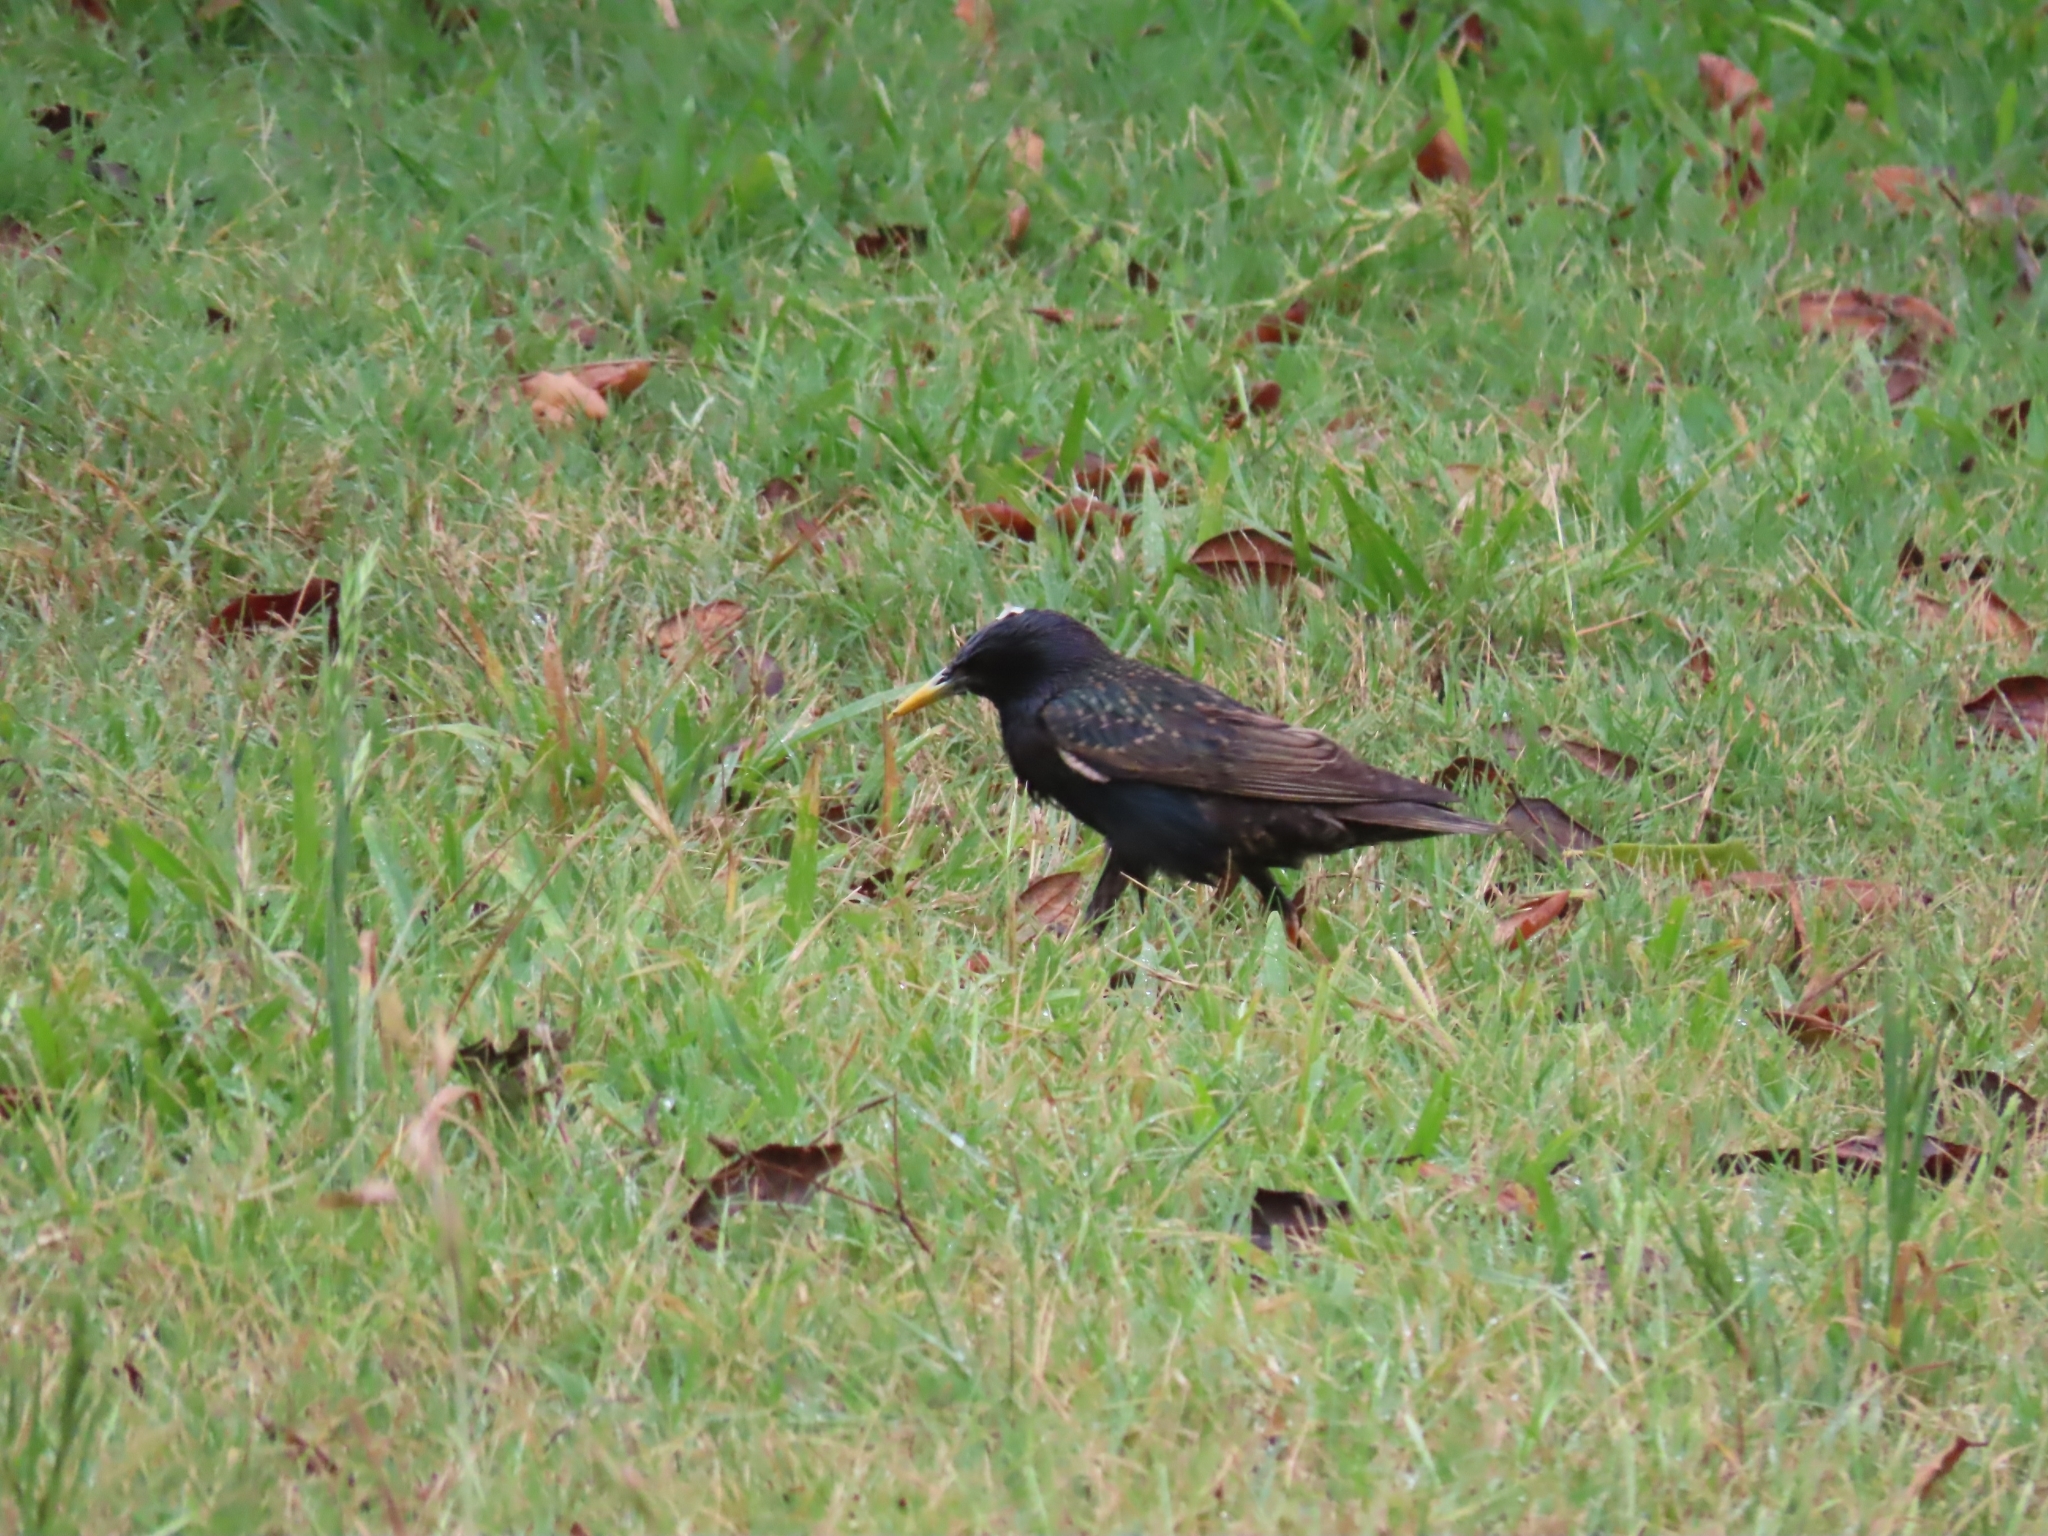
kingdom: Animalia
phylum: Chordata
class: Aves
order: Passeriformes
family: Sturnidae
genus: Sturnus
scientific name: Sturnus vulgaris
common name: Common starling
